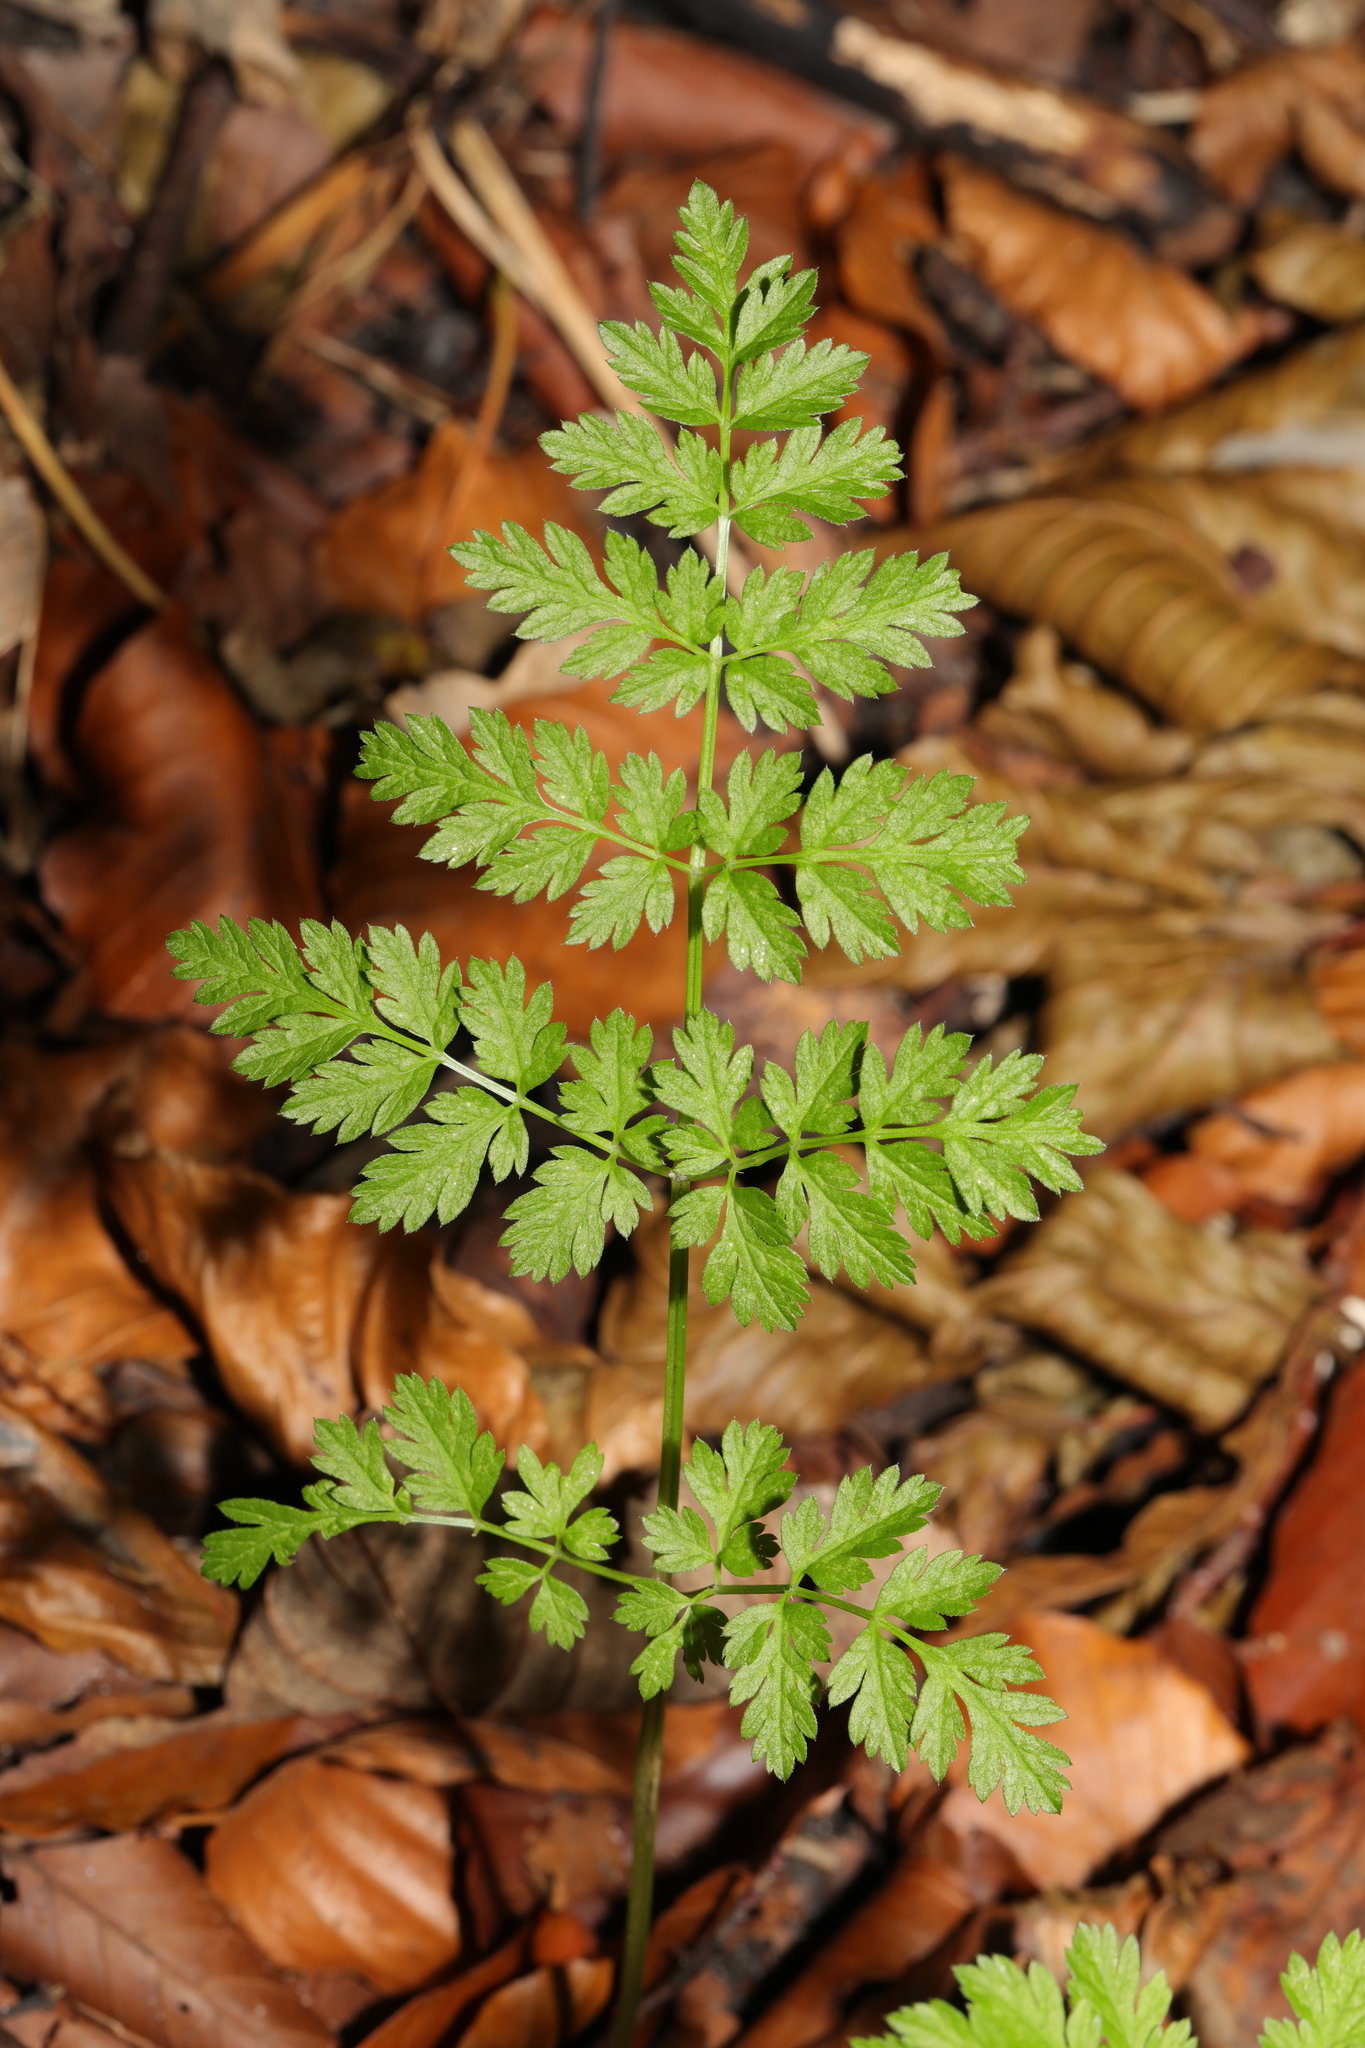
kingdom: Plantae
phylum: Tracheophyta
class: Magnoliopsida
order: Apiales
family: Apiaceae
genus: Anthriscus
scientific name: Anthriscus sylvestris
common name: Cow parsley
